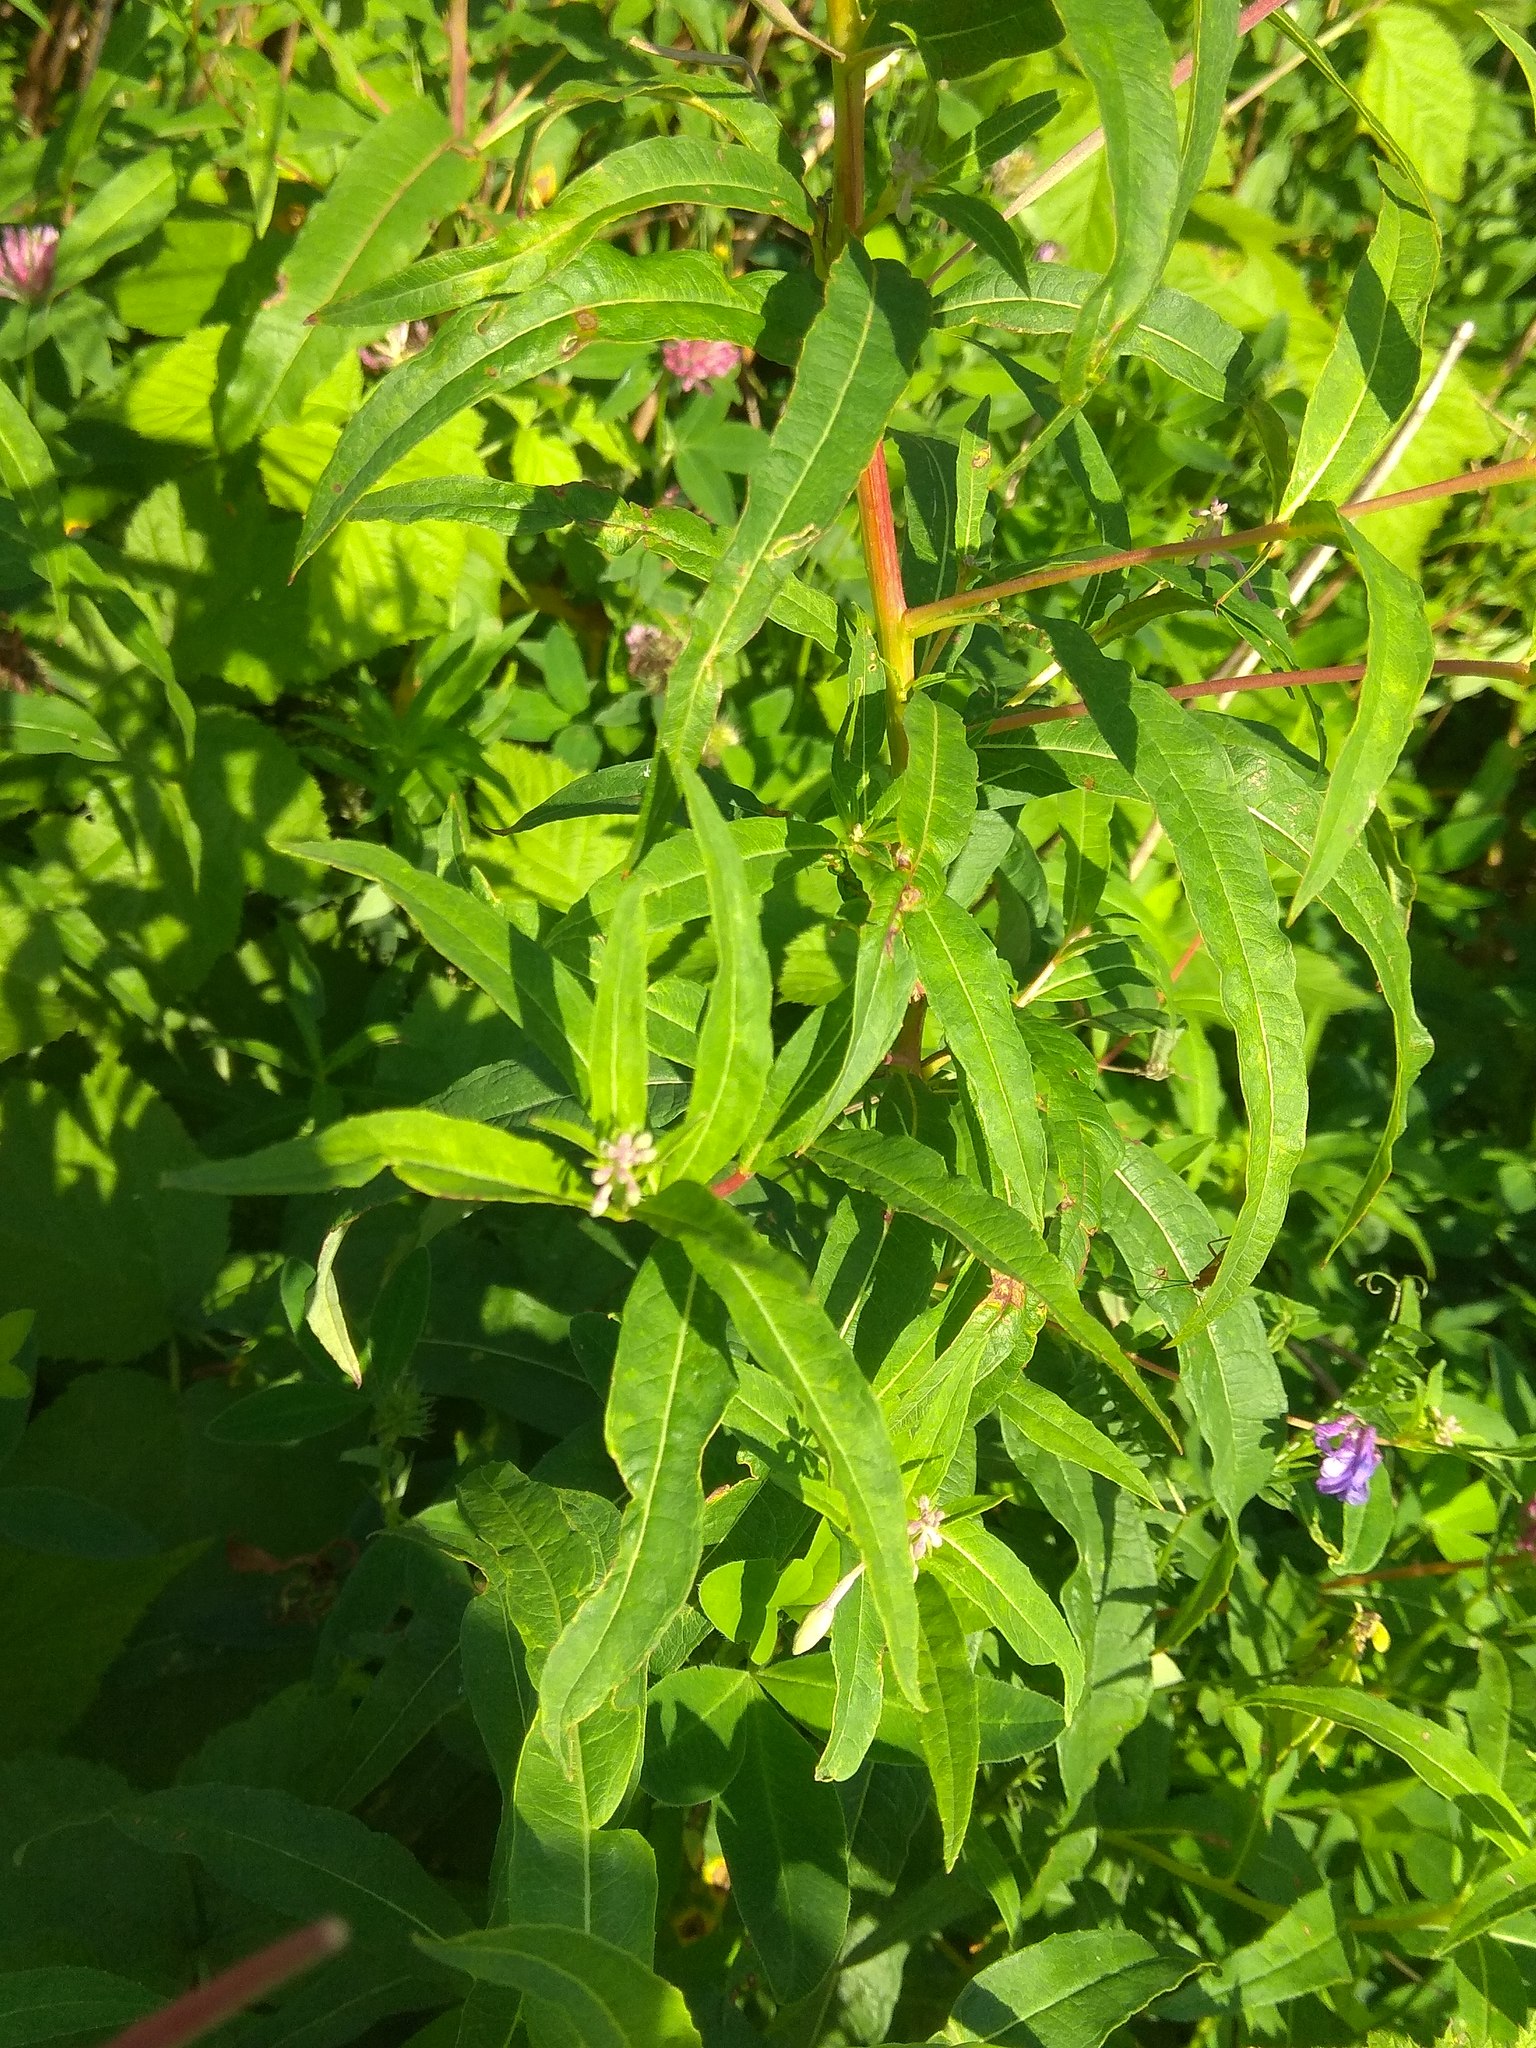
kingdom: Plantae
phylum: Tracheophyta
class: Magnoliopsida
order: Myrtales
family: Onagraceae
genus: Chamaenerion
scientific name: Chamaenerion angustifolium
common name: Fireweed
